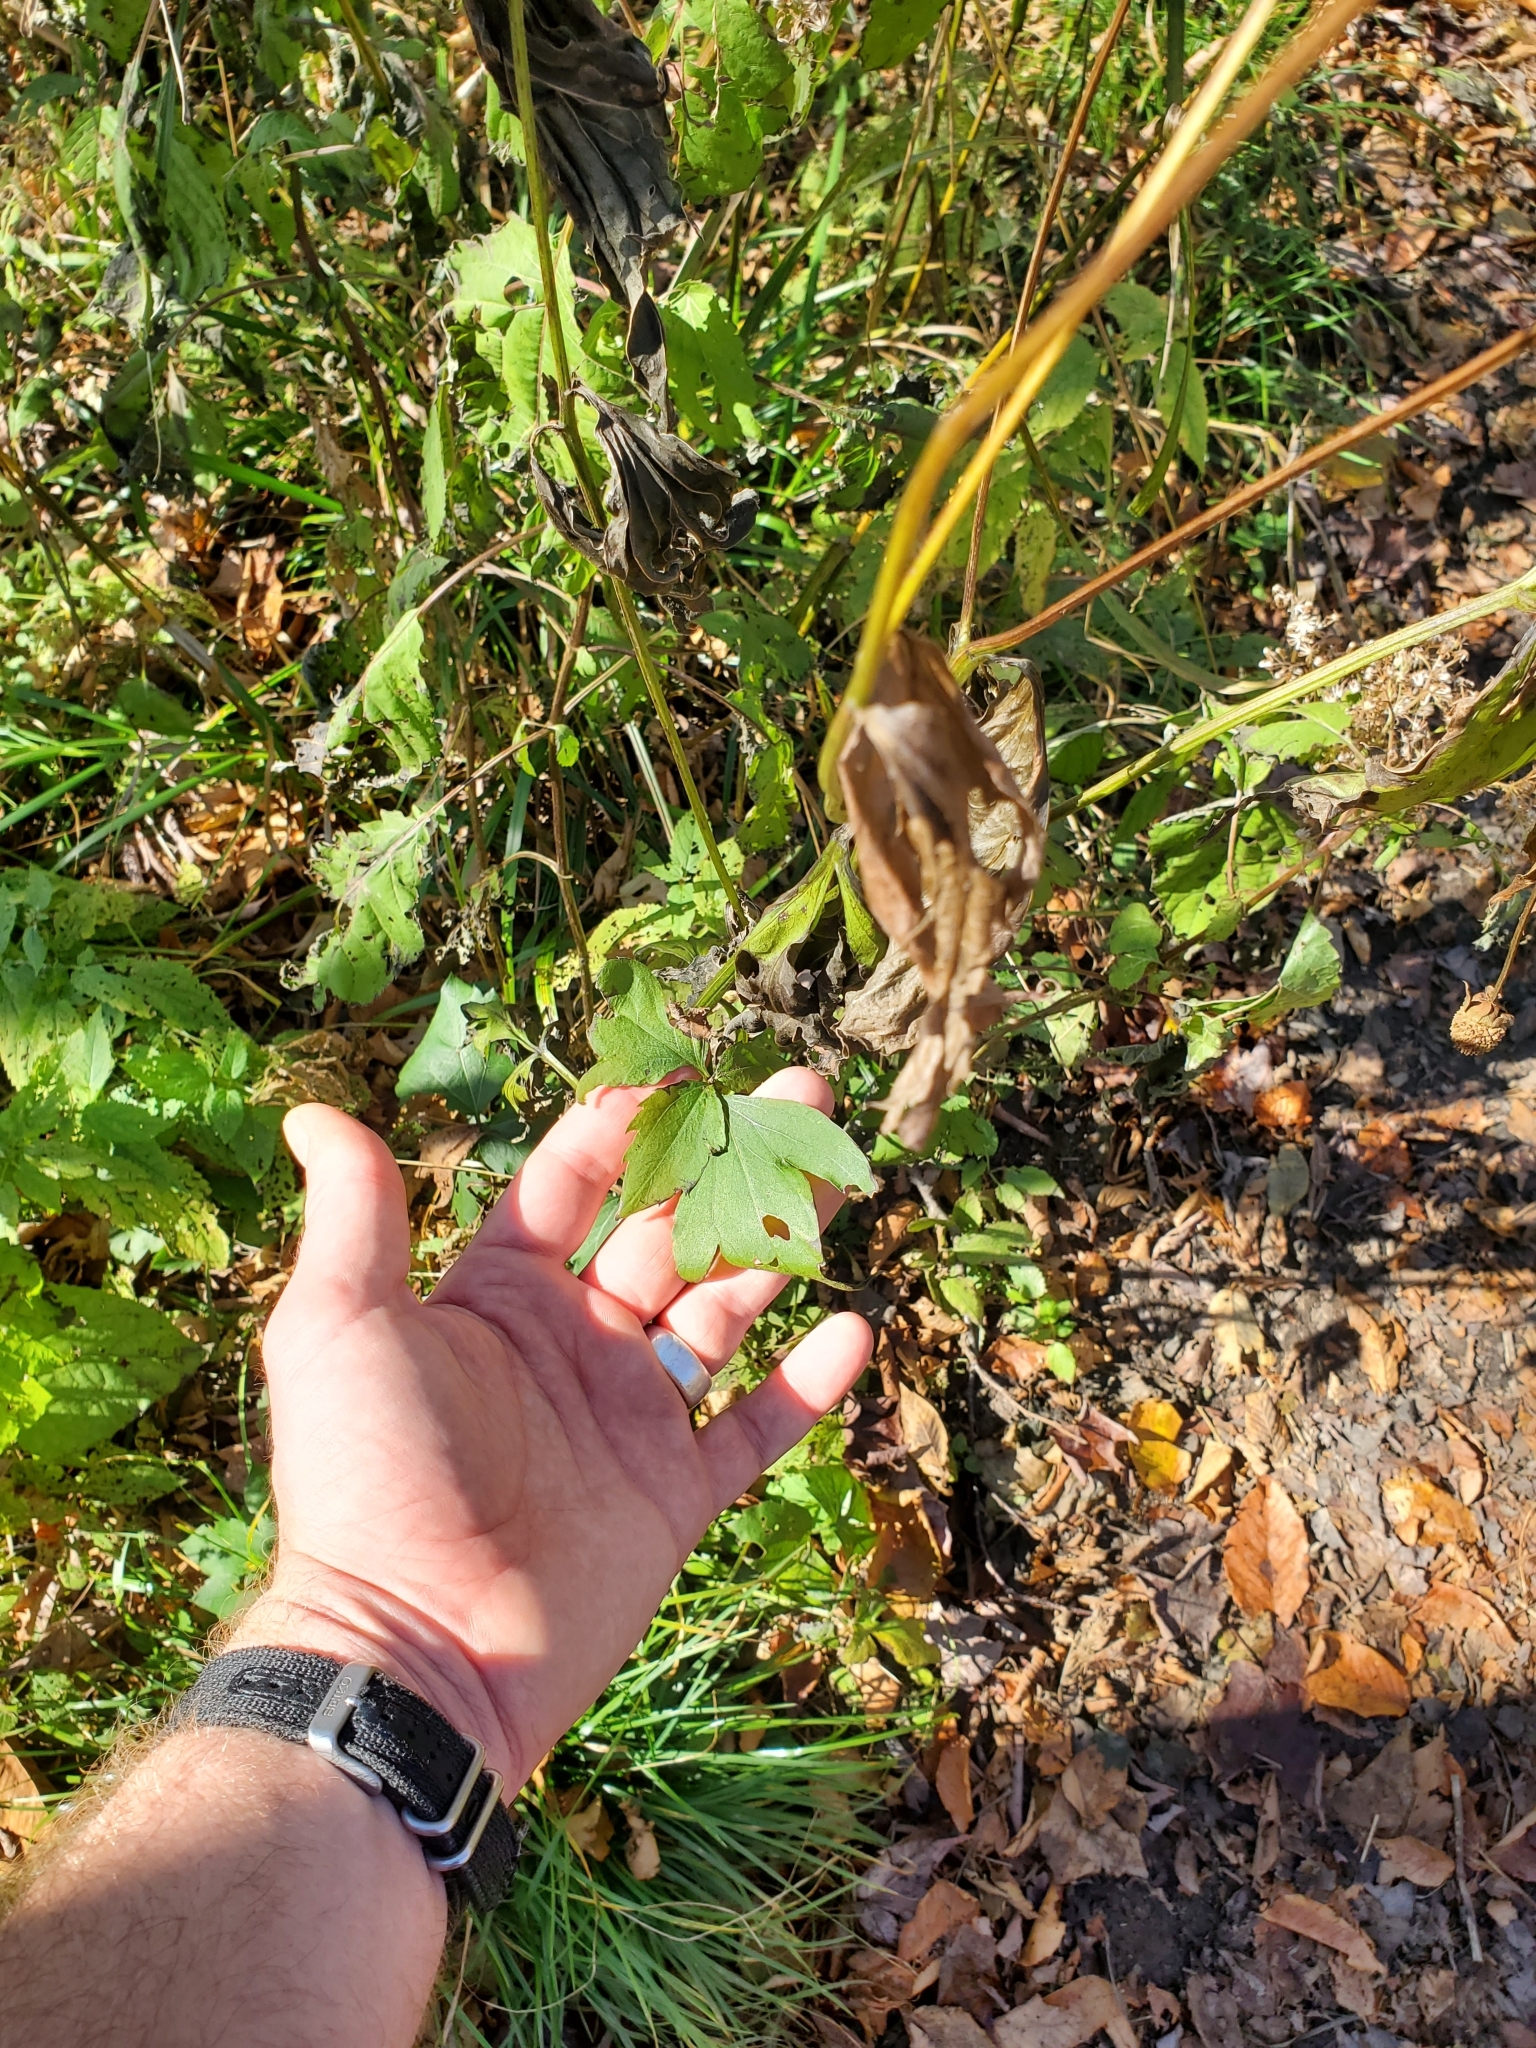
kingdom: Plantae
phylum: Tracheophyta
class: Magnoliopsida
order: Asterales
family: Asteraceae
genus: Rudbeckia
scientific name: Rudbeckia laciniata
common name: Coneflower
